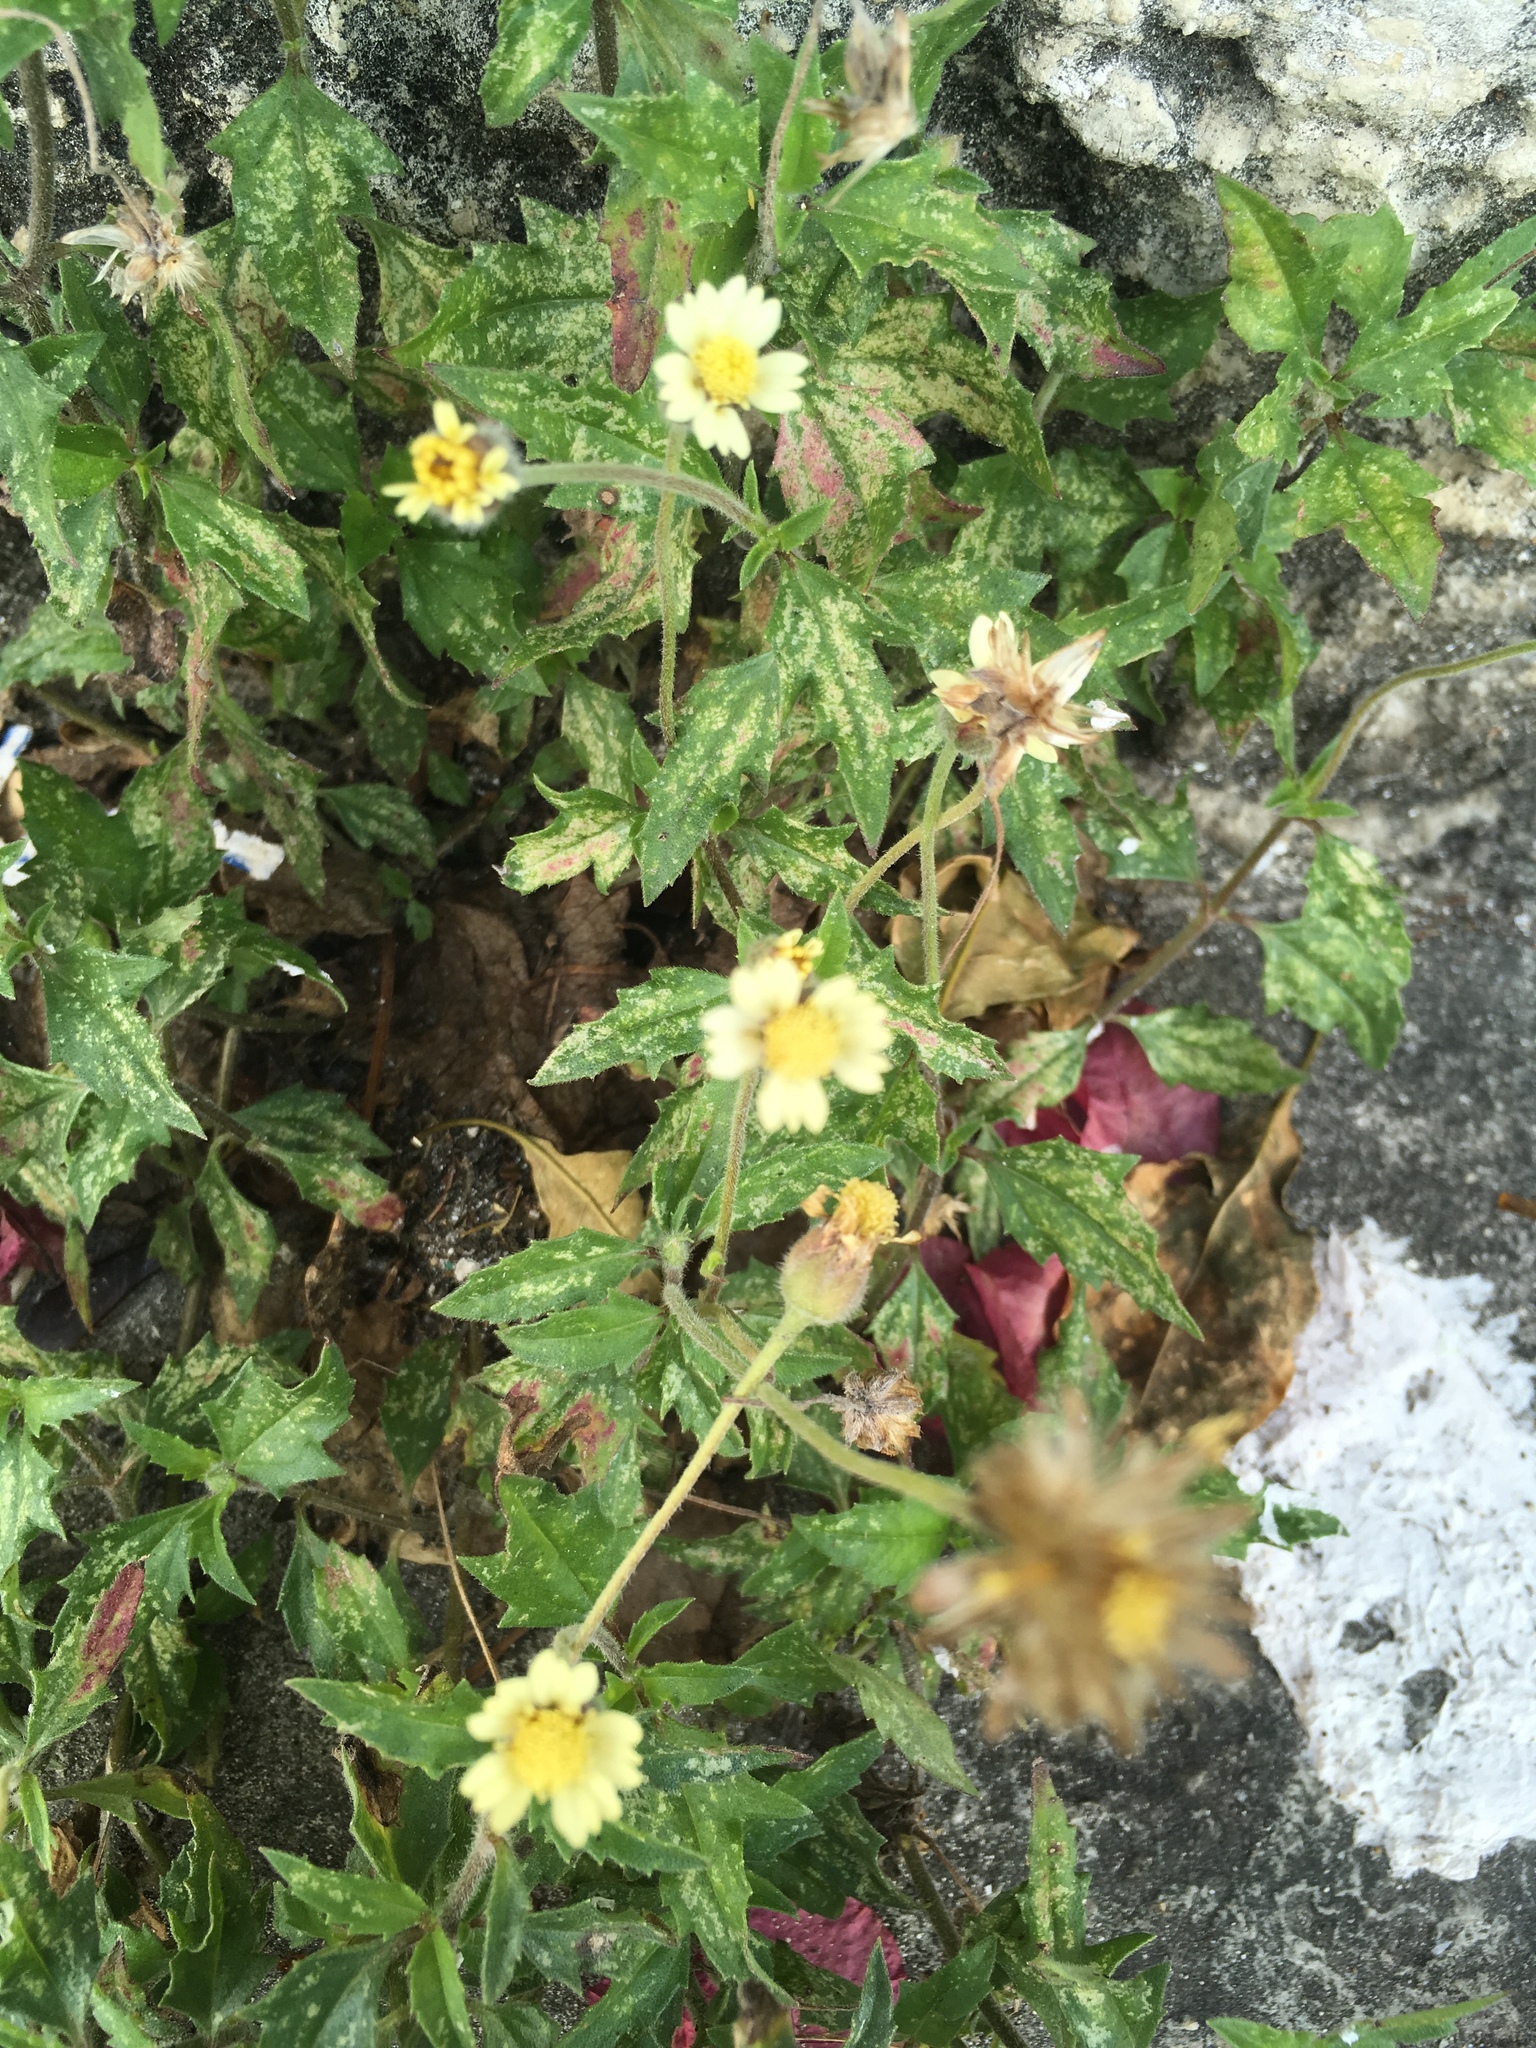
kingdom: Plantae
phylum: Tracheophyta
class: Magnoliopsida
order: Asterales
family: Asteraceae
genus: Tridax
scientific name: Tridax procumbens
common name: Coatbuttons
